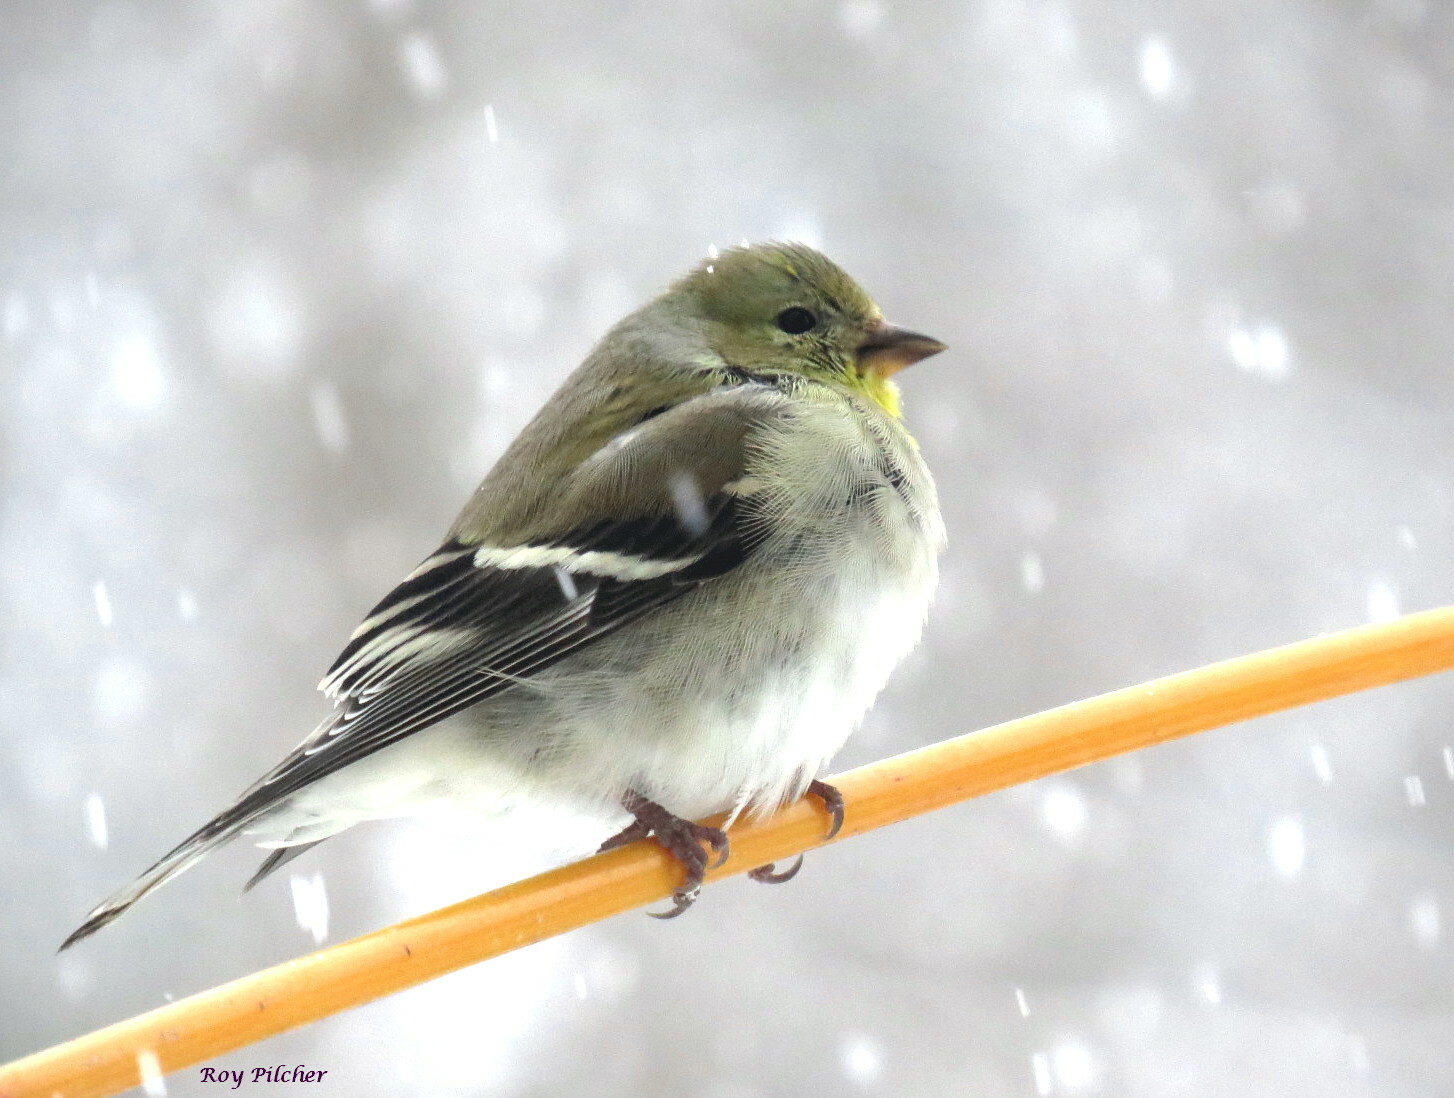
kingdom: Animalia
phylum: Chordata
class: Aves
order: Passeriformes
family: Fringillidae
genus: Spinus
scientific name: Spinus tristis
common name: American goldfinch
